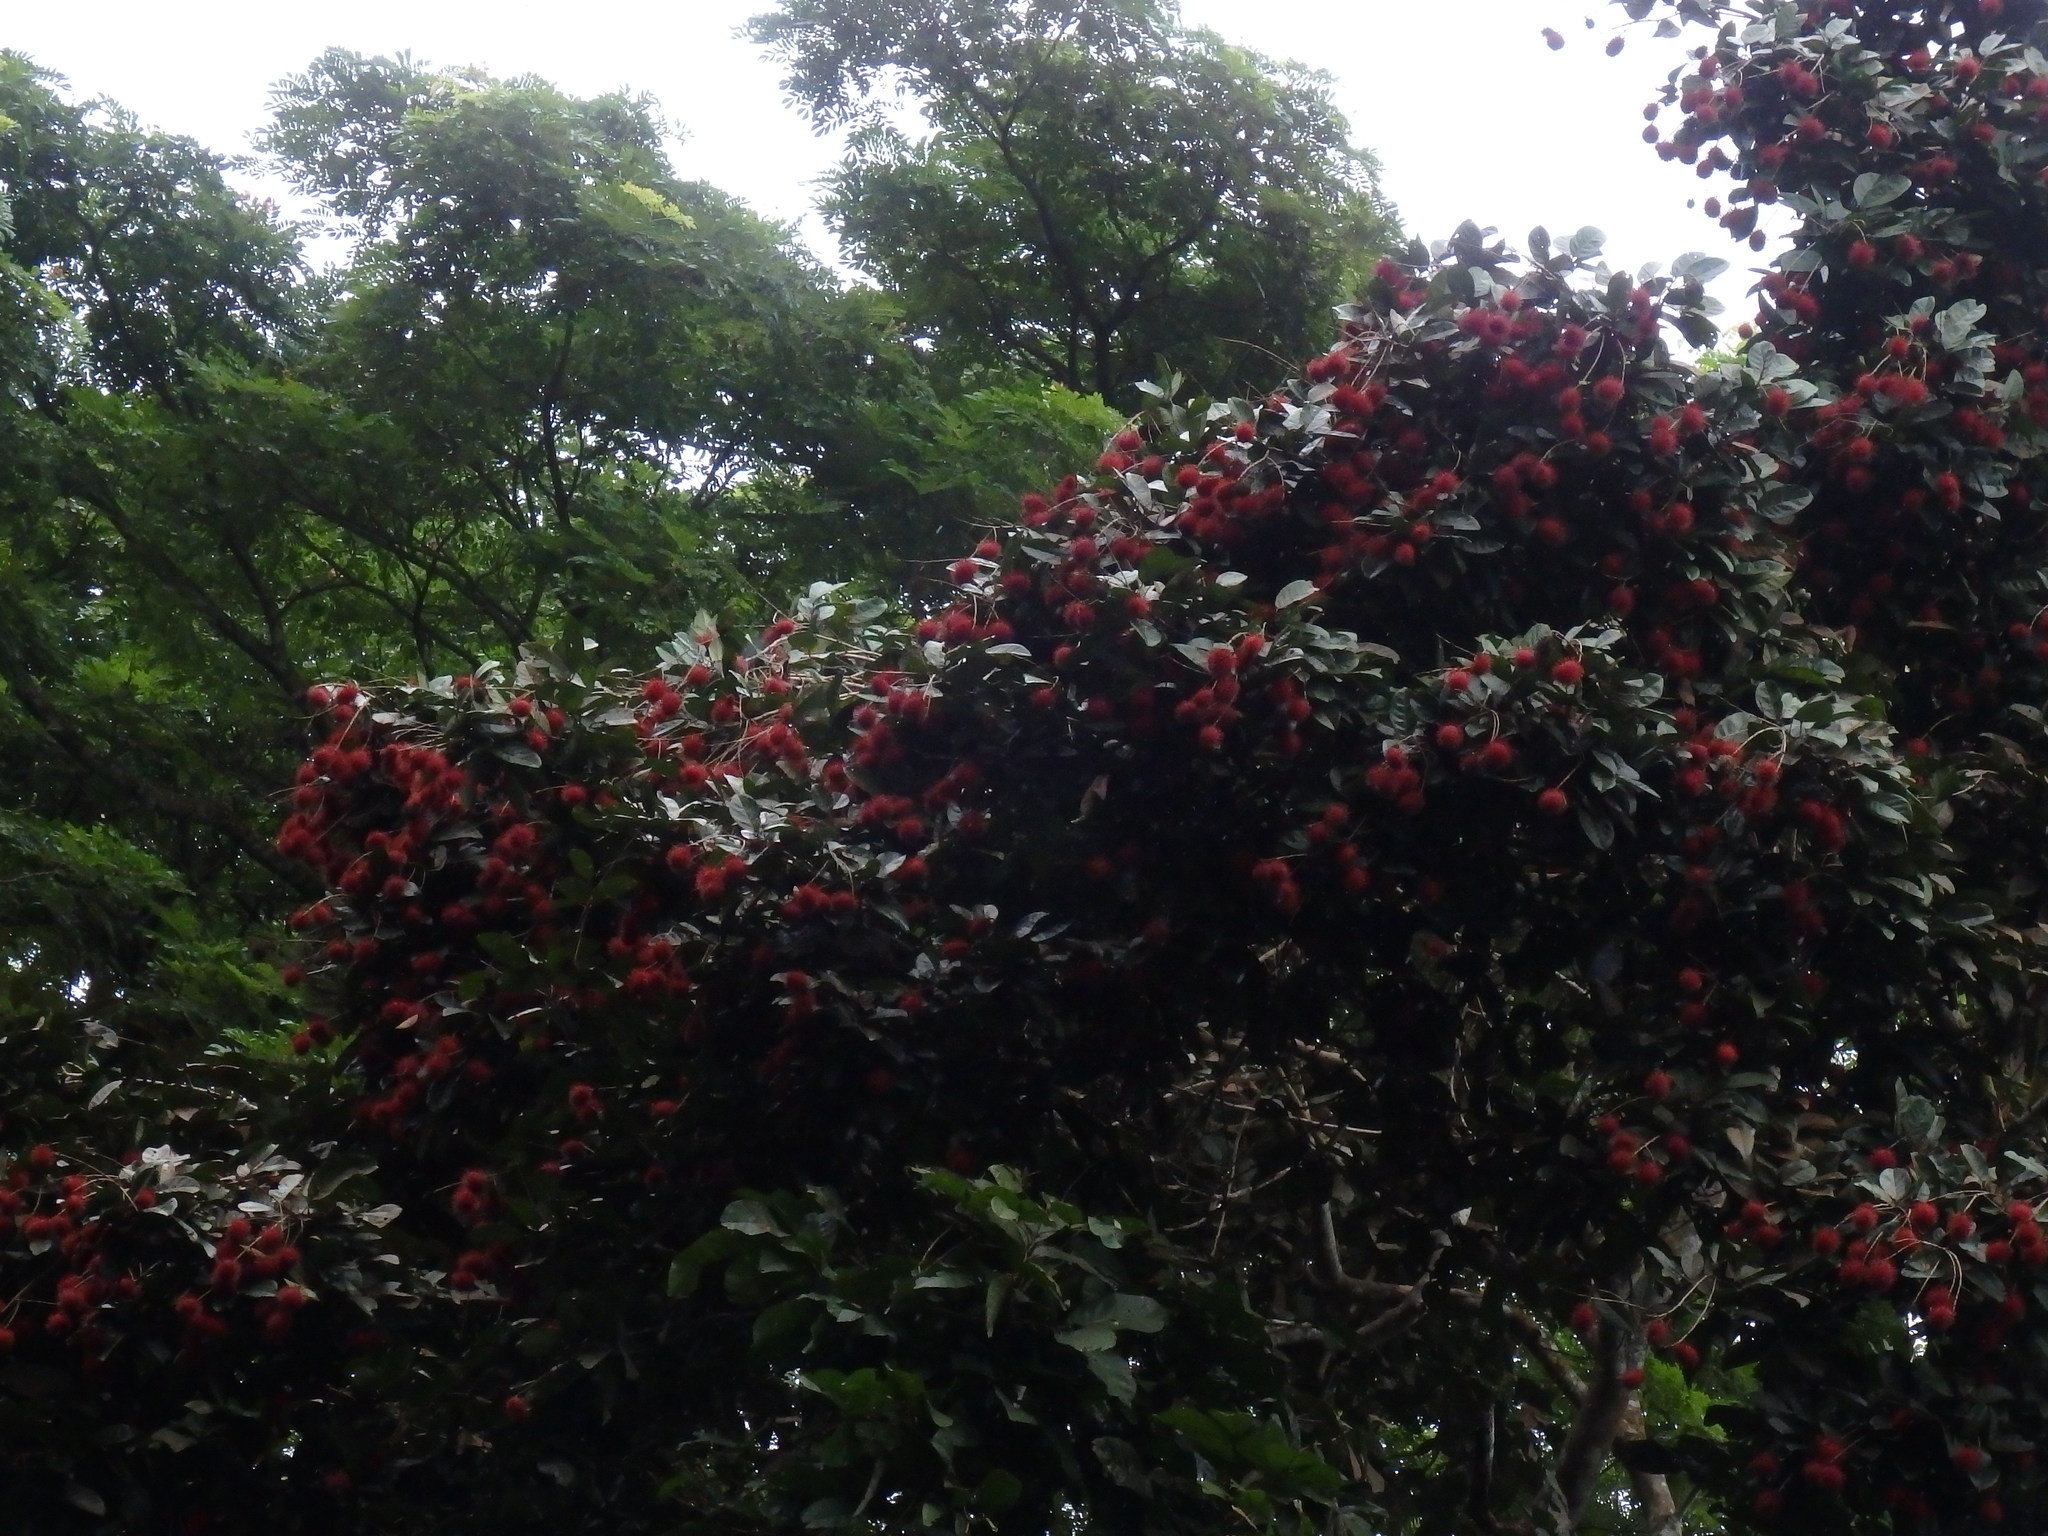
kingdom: Plantae
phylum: Tracheophyta
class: Magnoliopsida
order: Sapindales
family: Sapindaceae
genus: Nephelium
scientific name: Nephelium lappaceum
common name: Rambutan
